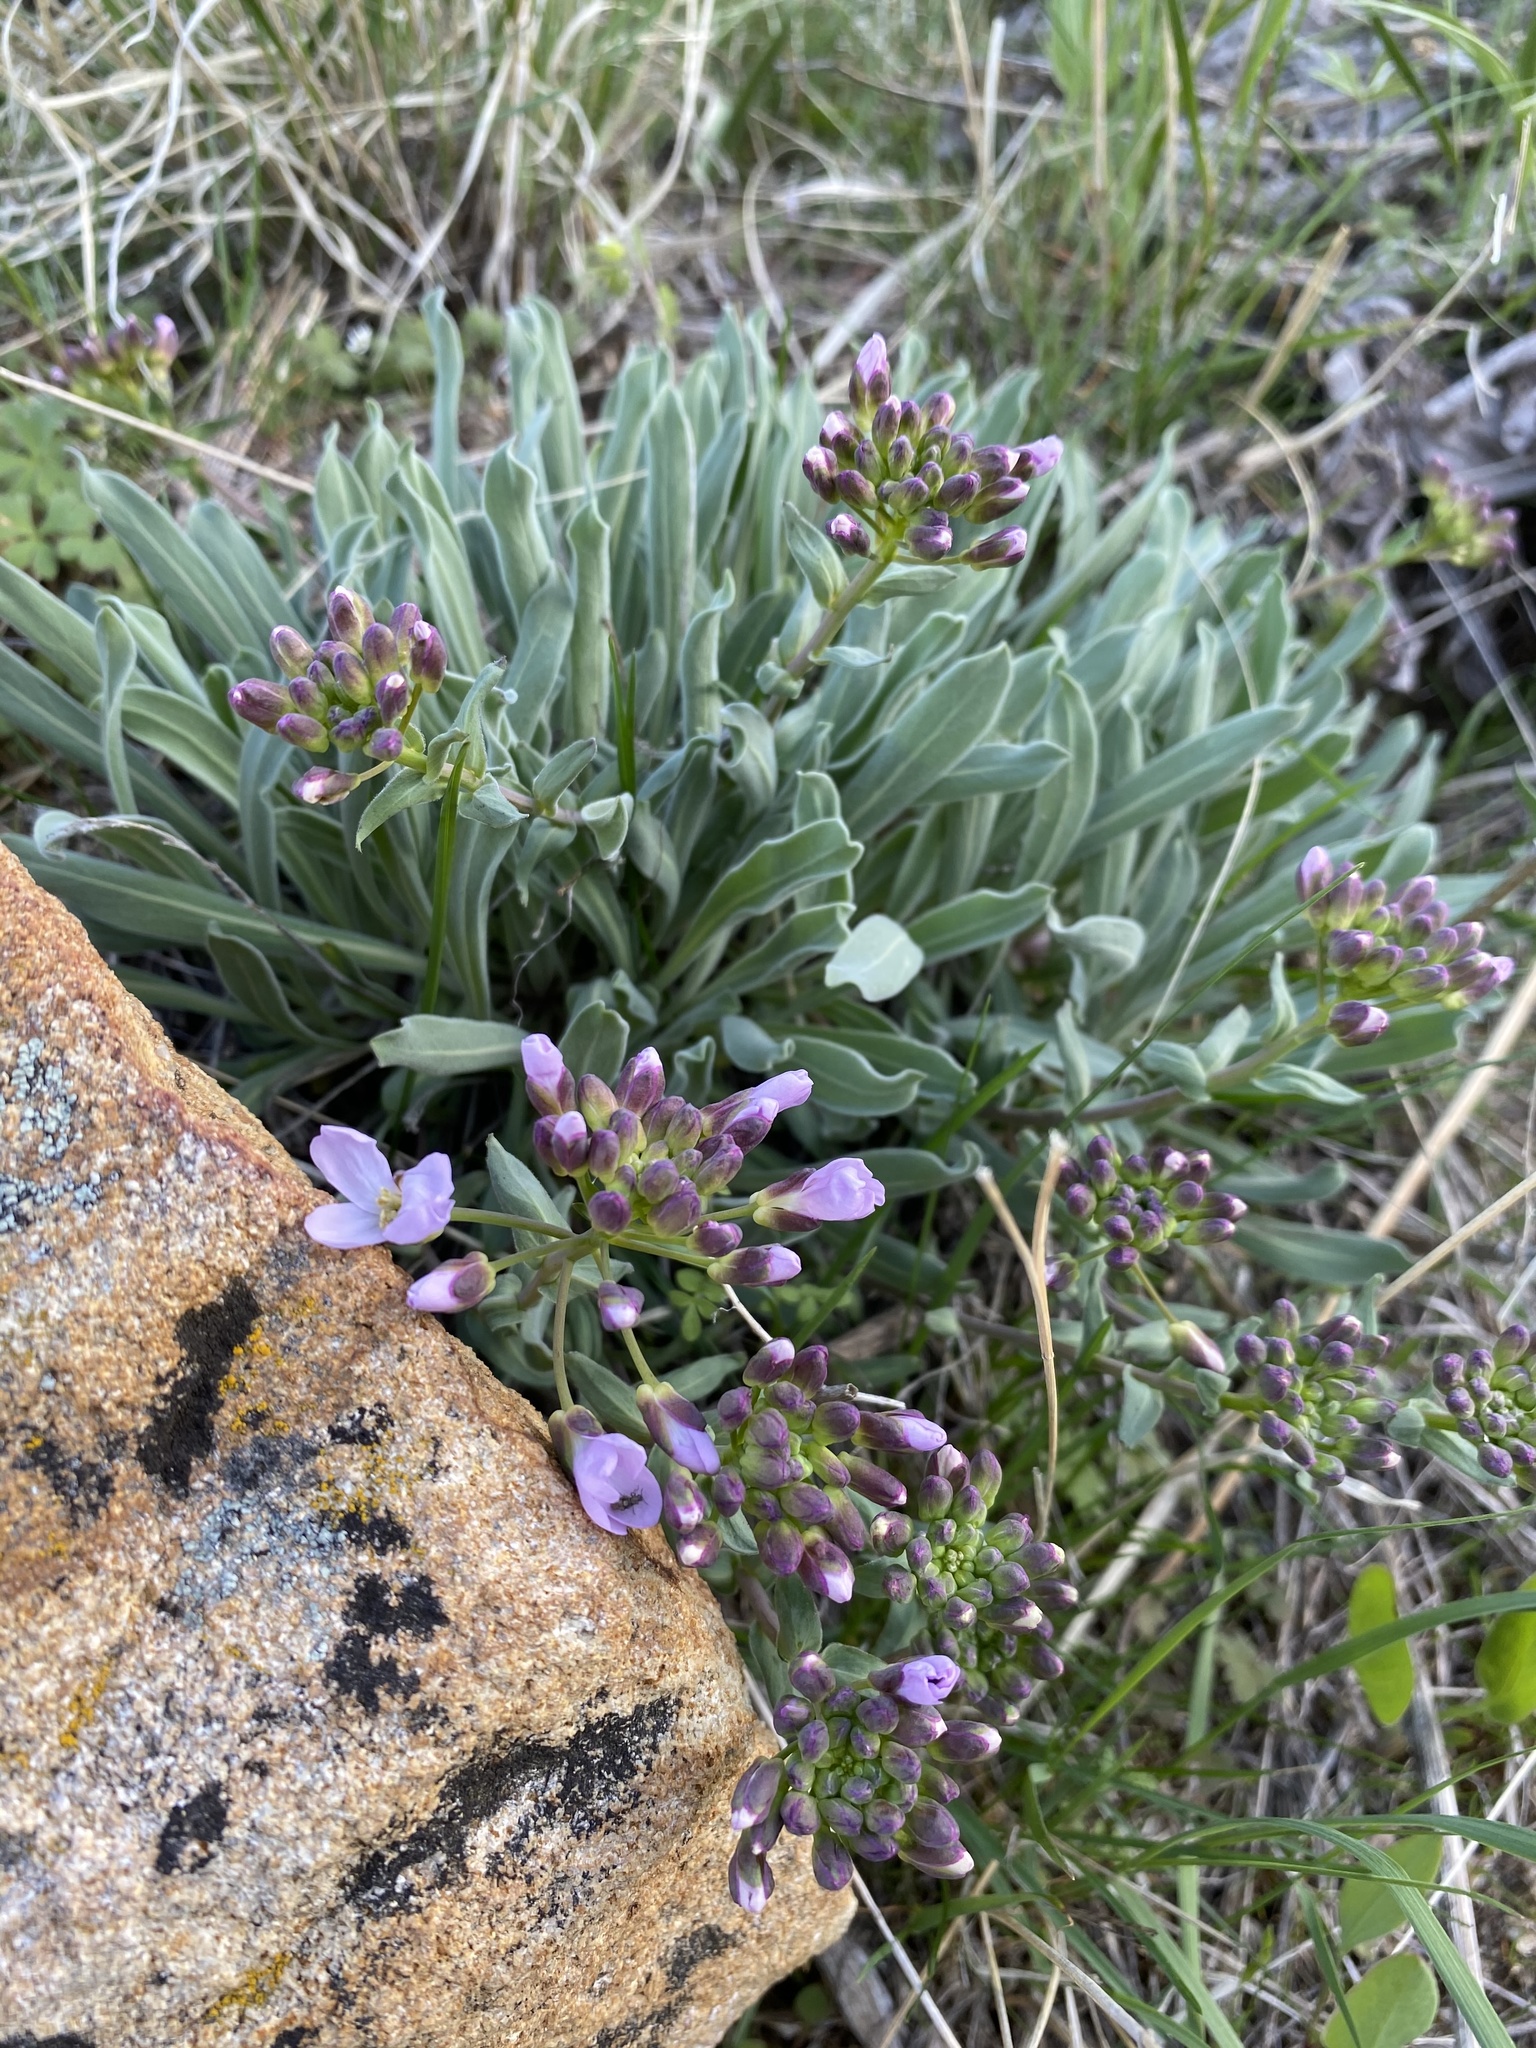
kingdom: Plantae
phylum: Tracheophyta
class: Magnoliopsida
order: Brassicales
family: Brassicaceae
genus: Phoenicaulis
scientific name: Phoenicaulis cheiranthoides
